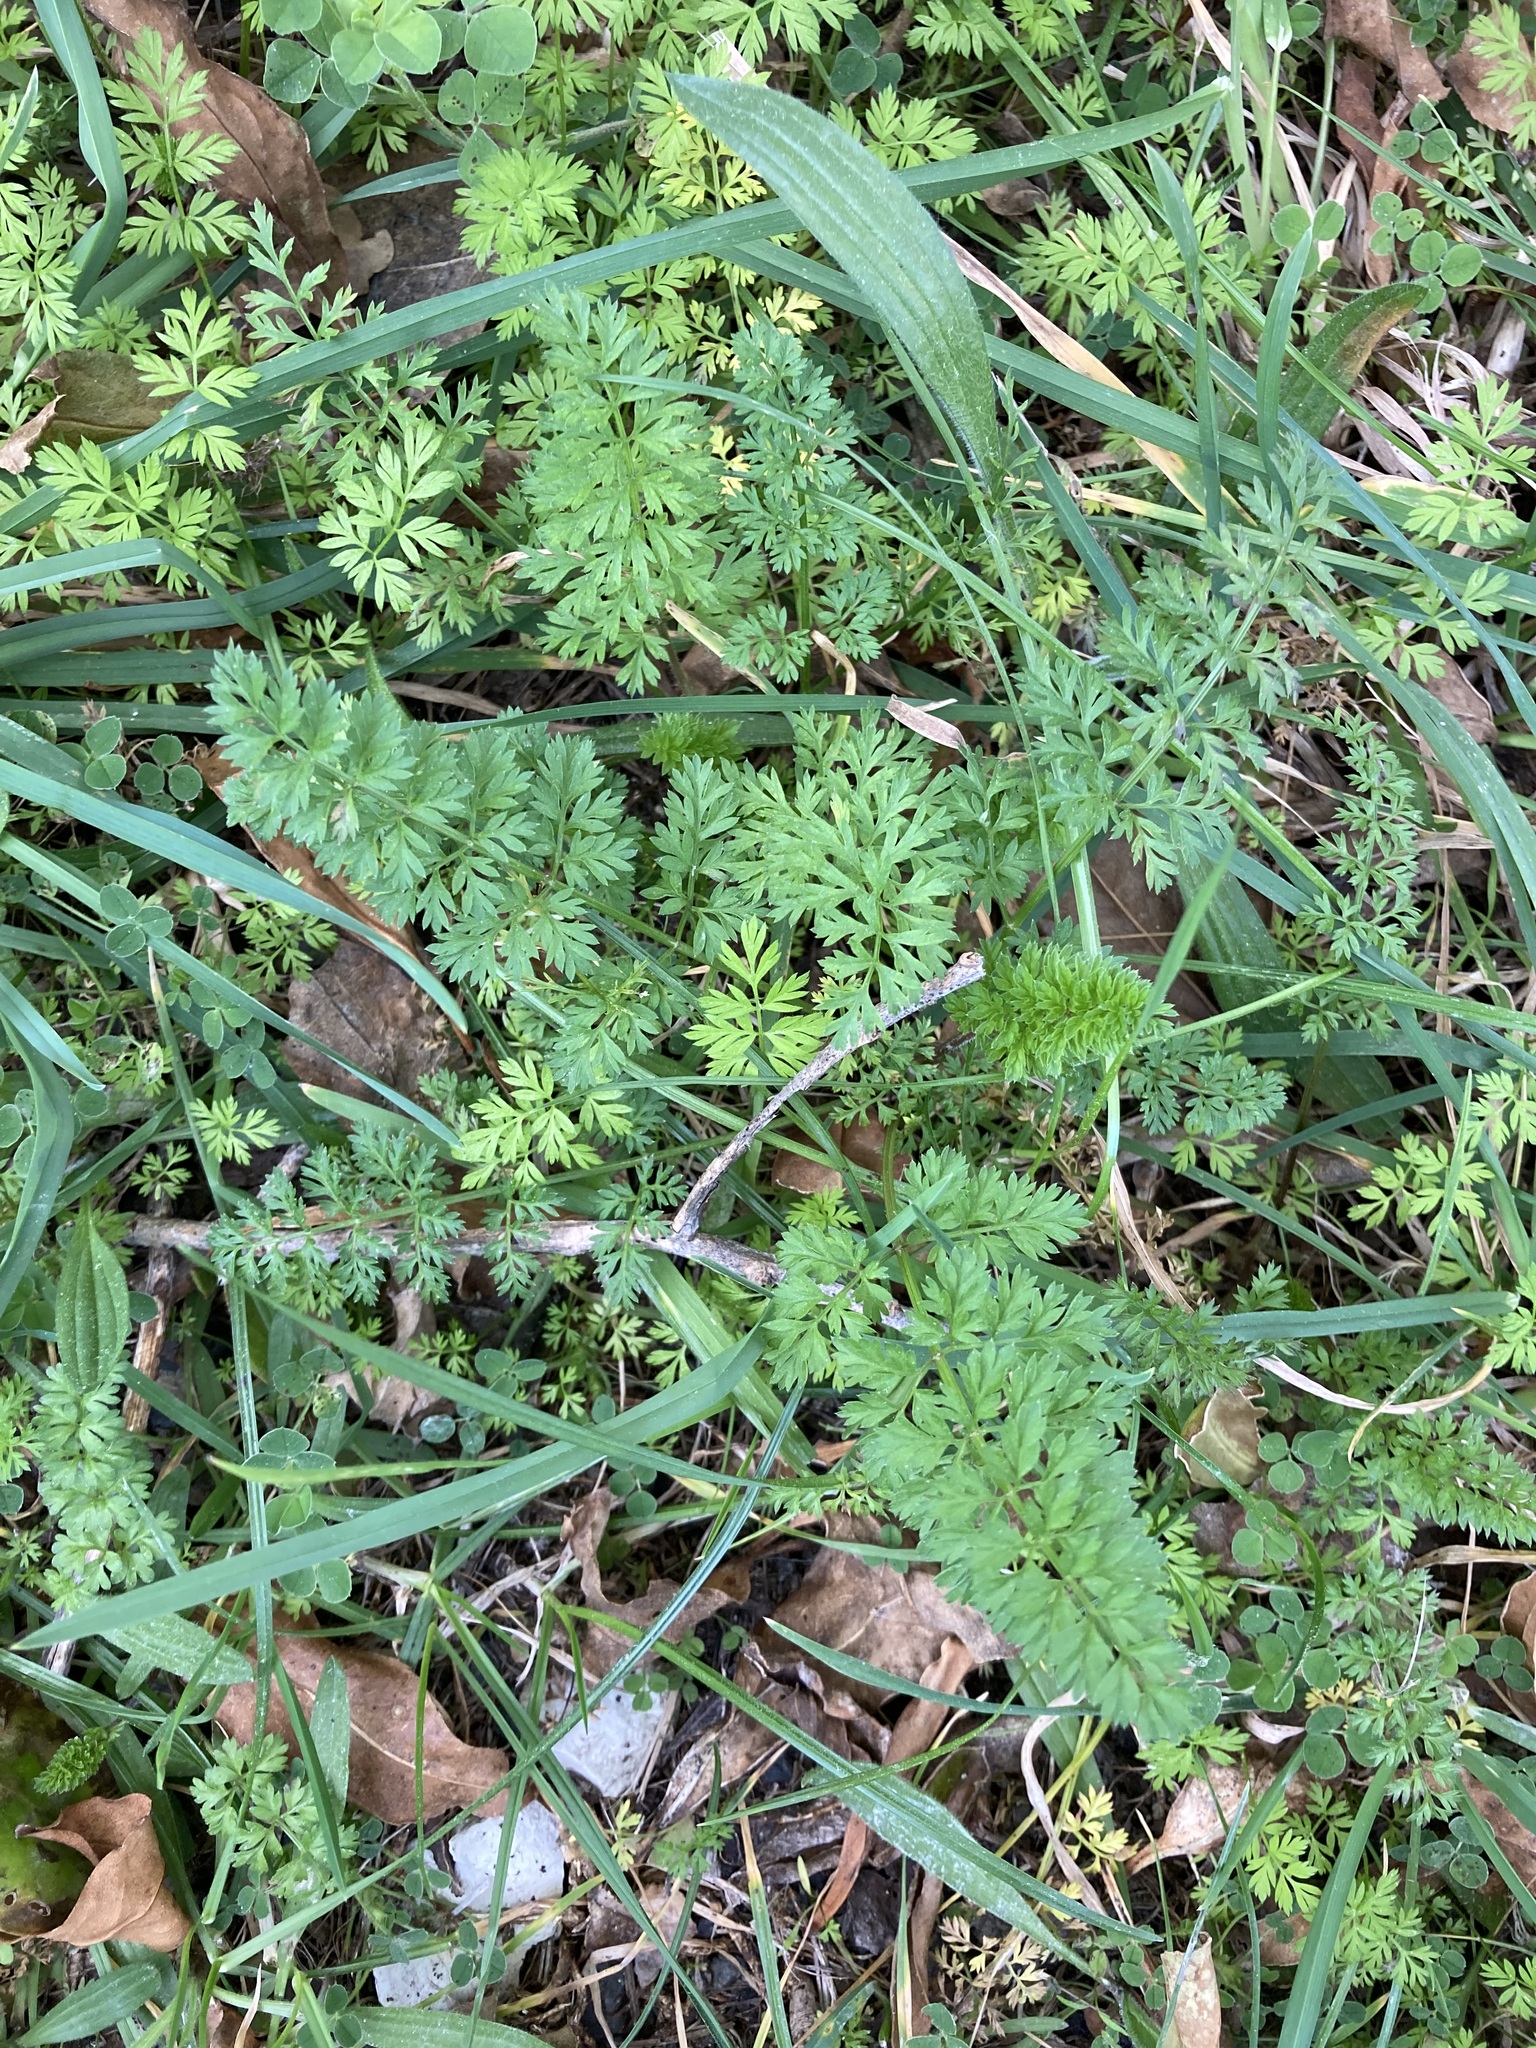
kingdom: Plantae
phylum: Tracheophyta
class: Magnoliopsida
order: Apiales
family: Apiaceae
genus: Daucus
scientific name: Daucus carota
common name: Wild carrot
